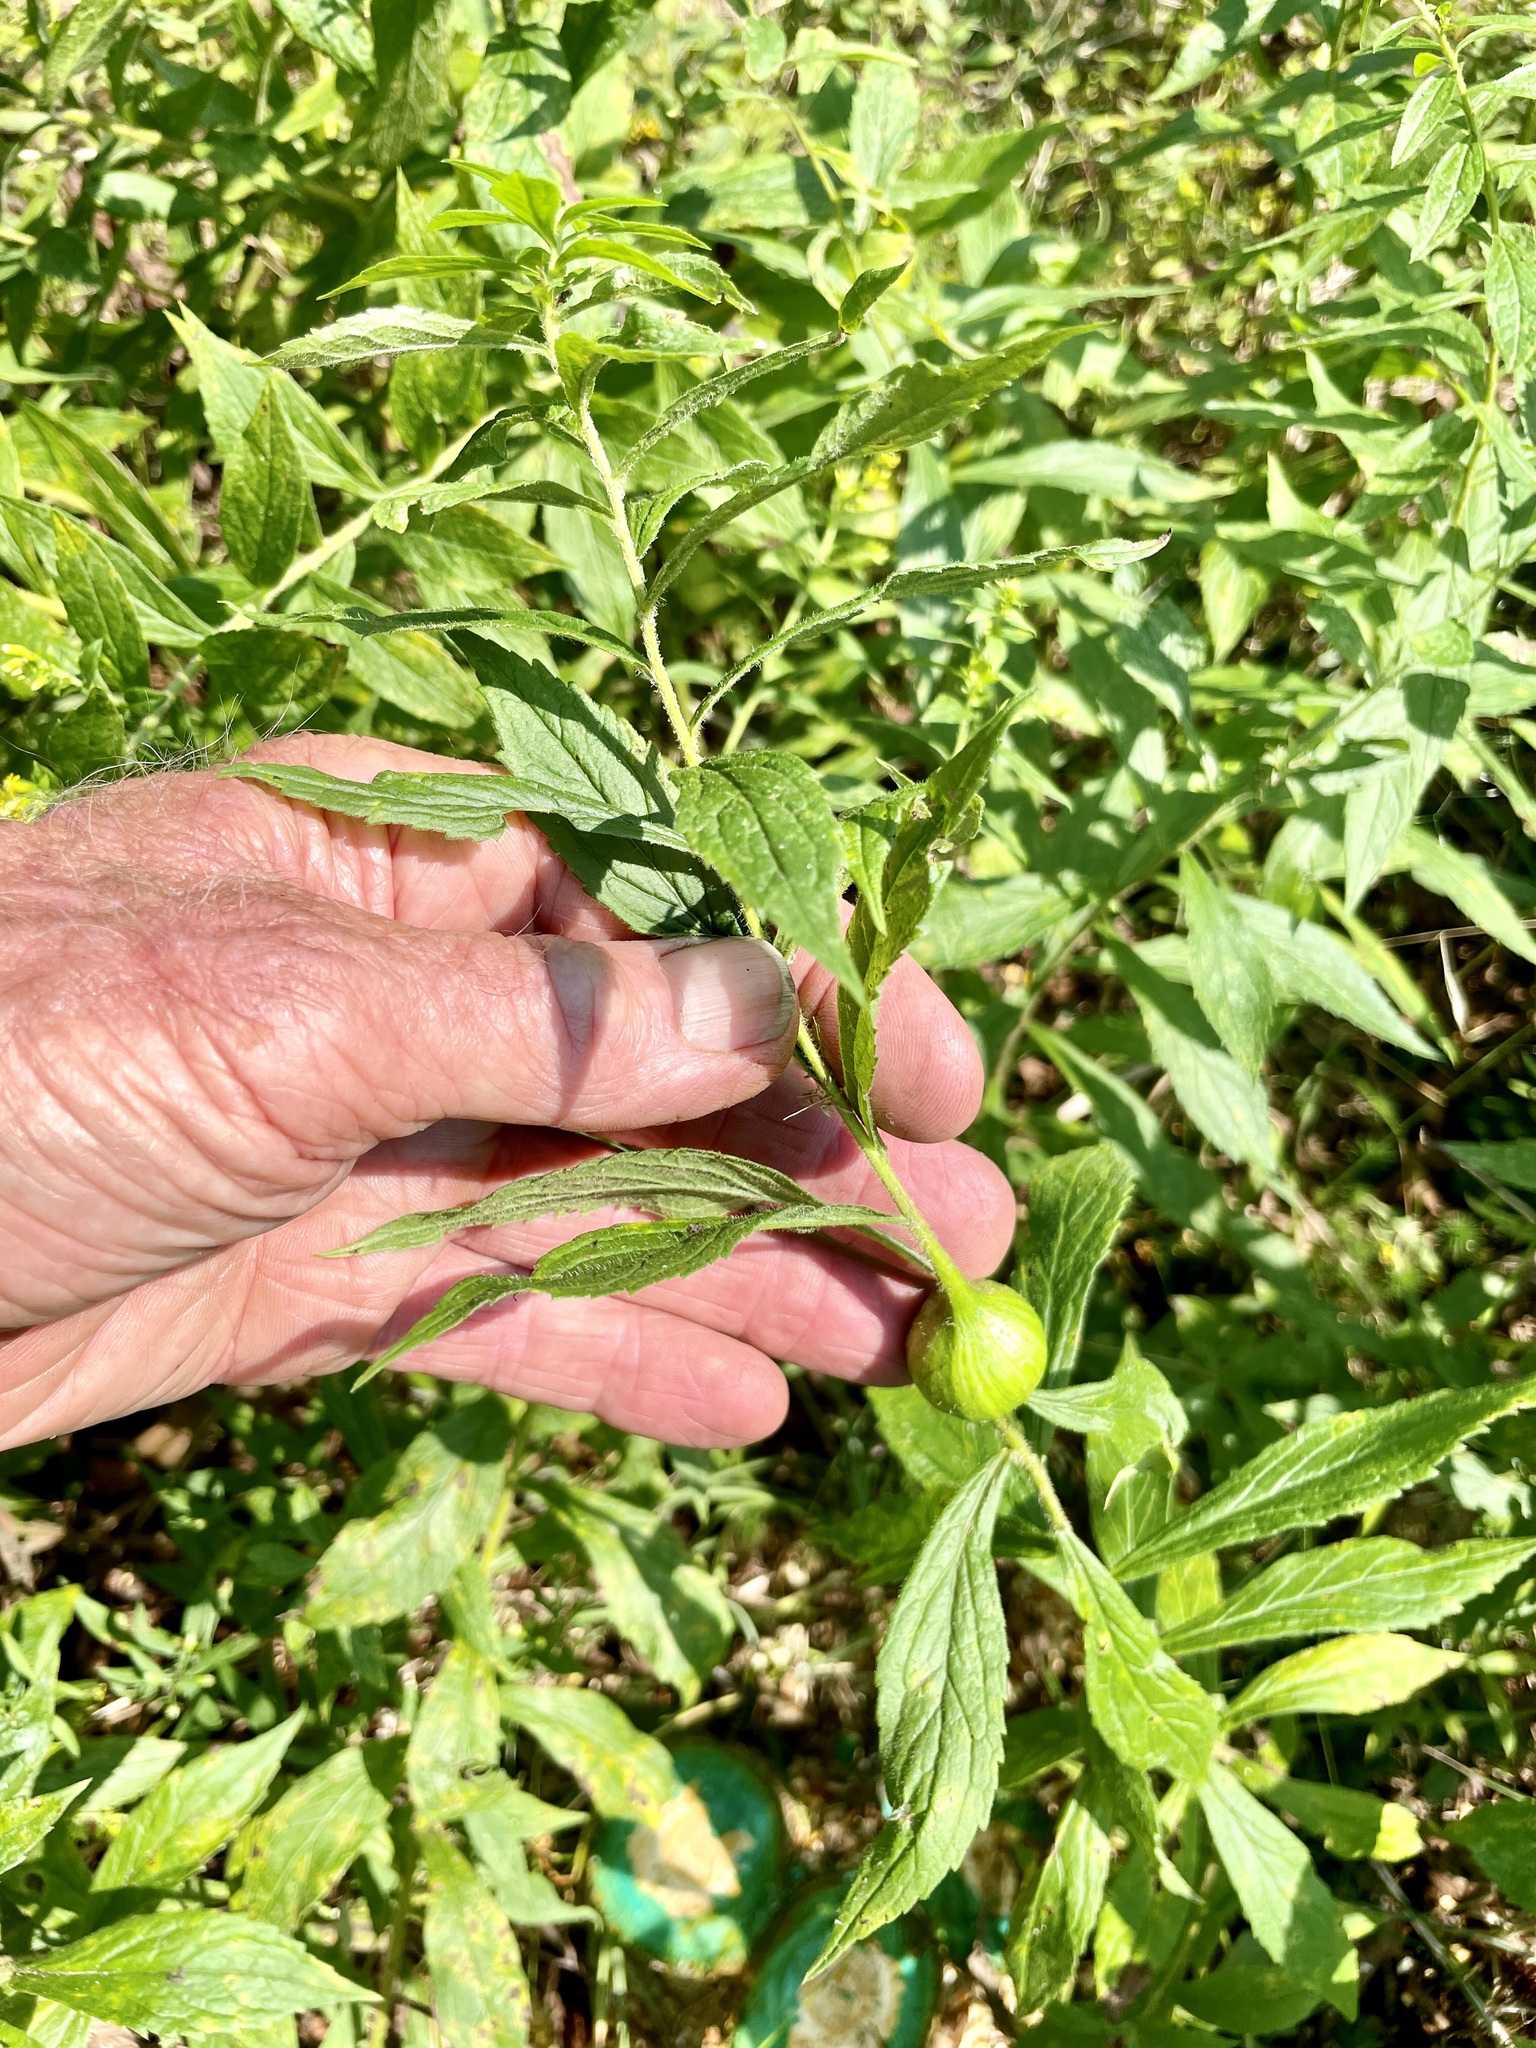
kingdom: Animalia
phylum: Arthropoda
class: Insecta
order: Diptera
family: Tephritidae
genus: Eurosta
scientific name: Eurosta solidaginis
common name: Goldenrod gall fly
